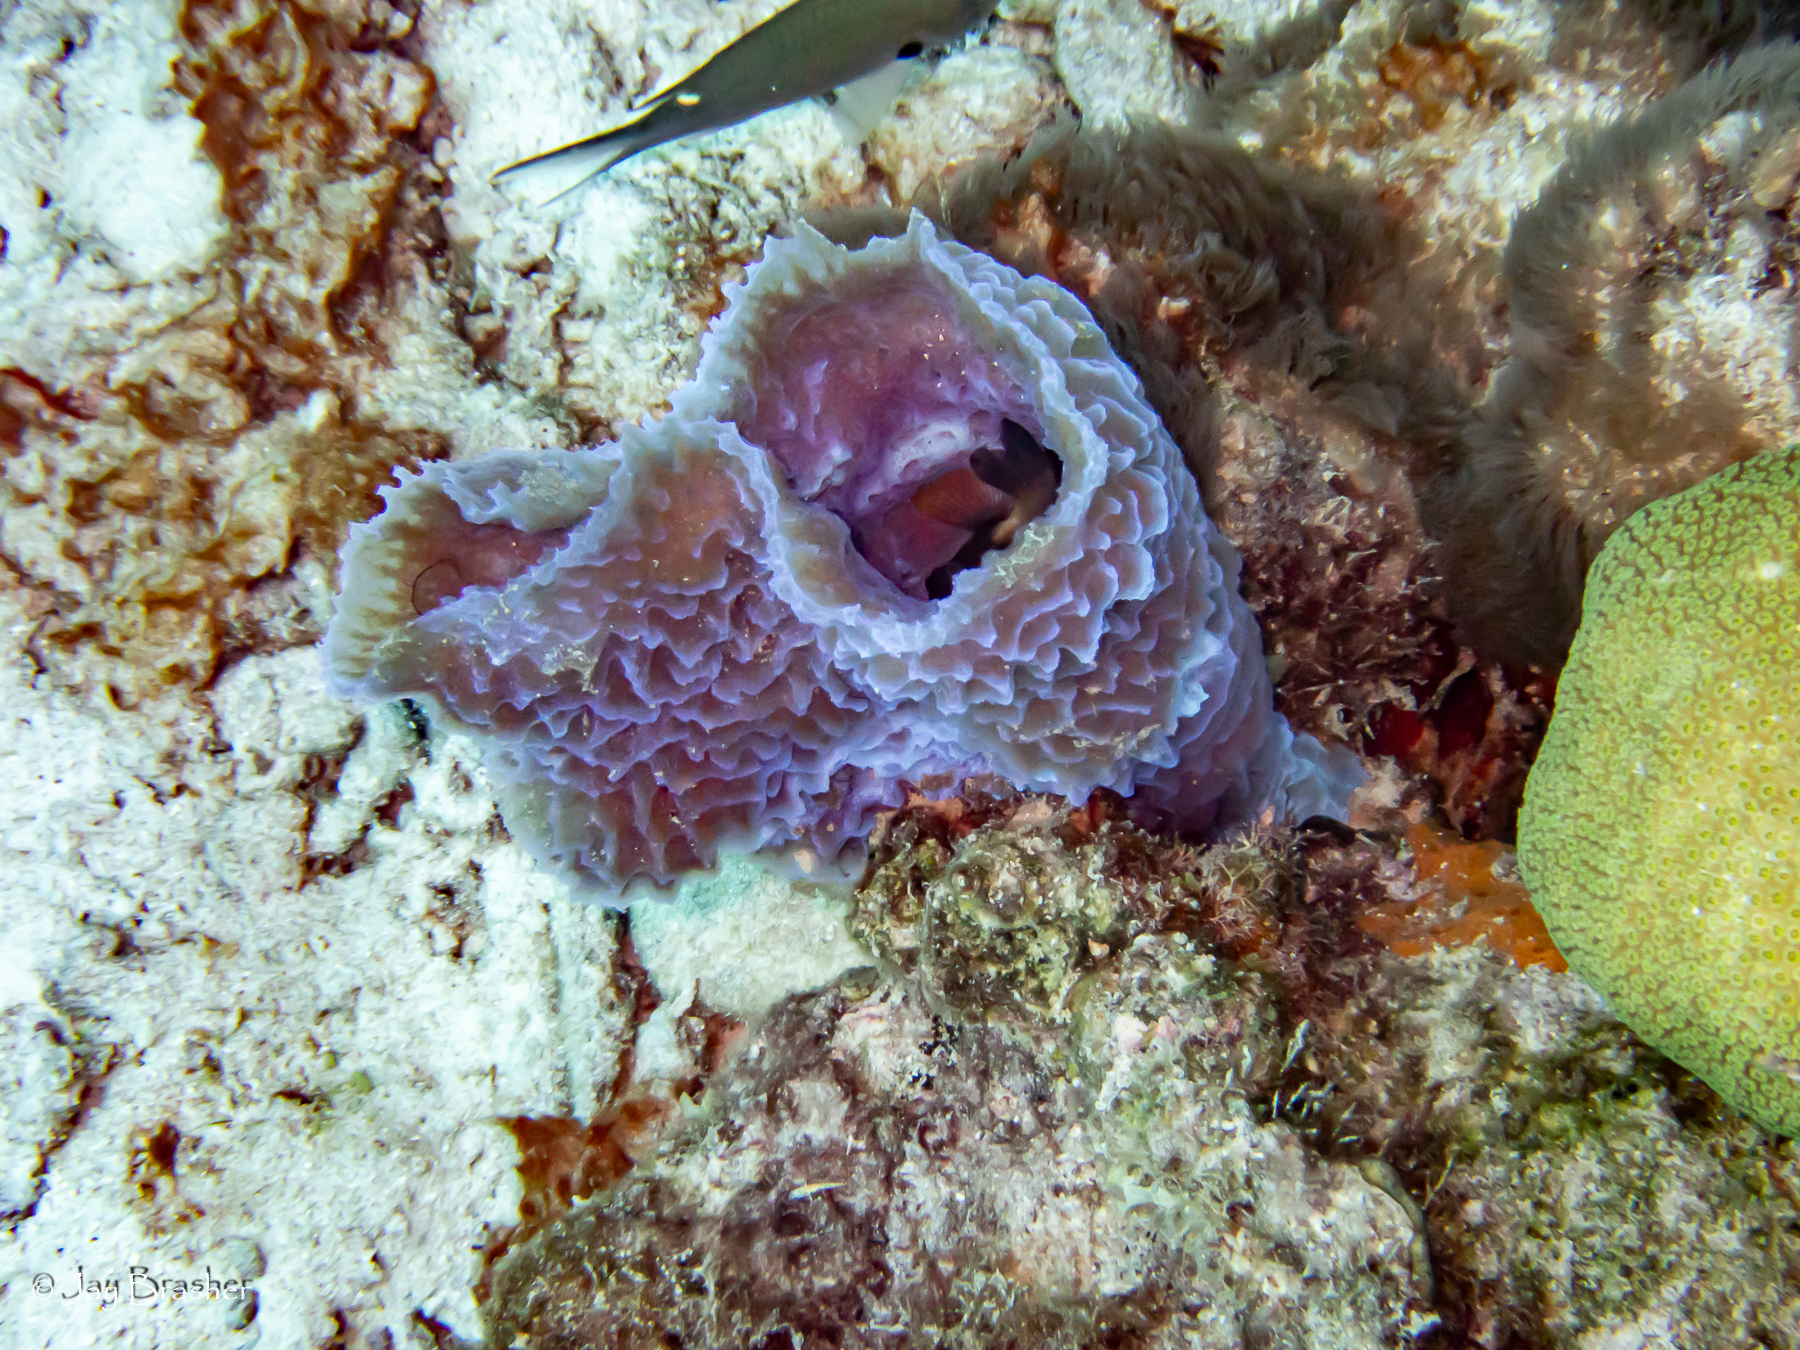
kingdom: Animalia
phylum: Porifera
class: Demospongiae
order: Haplosclerida
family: Callyspongiidae
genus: Callyspongia
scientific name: Callyspongia plicifera
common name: Azure vase sponge
